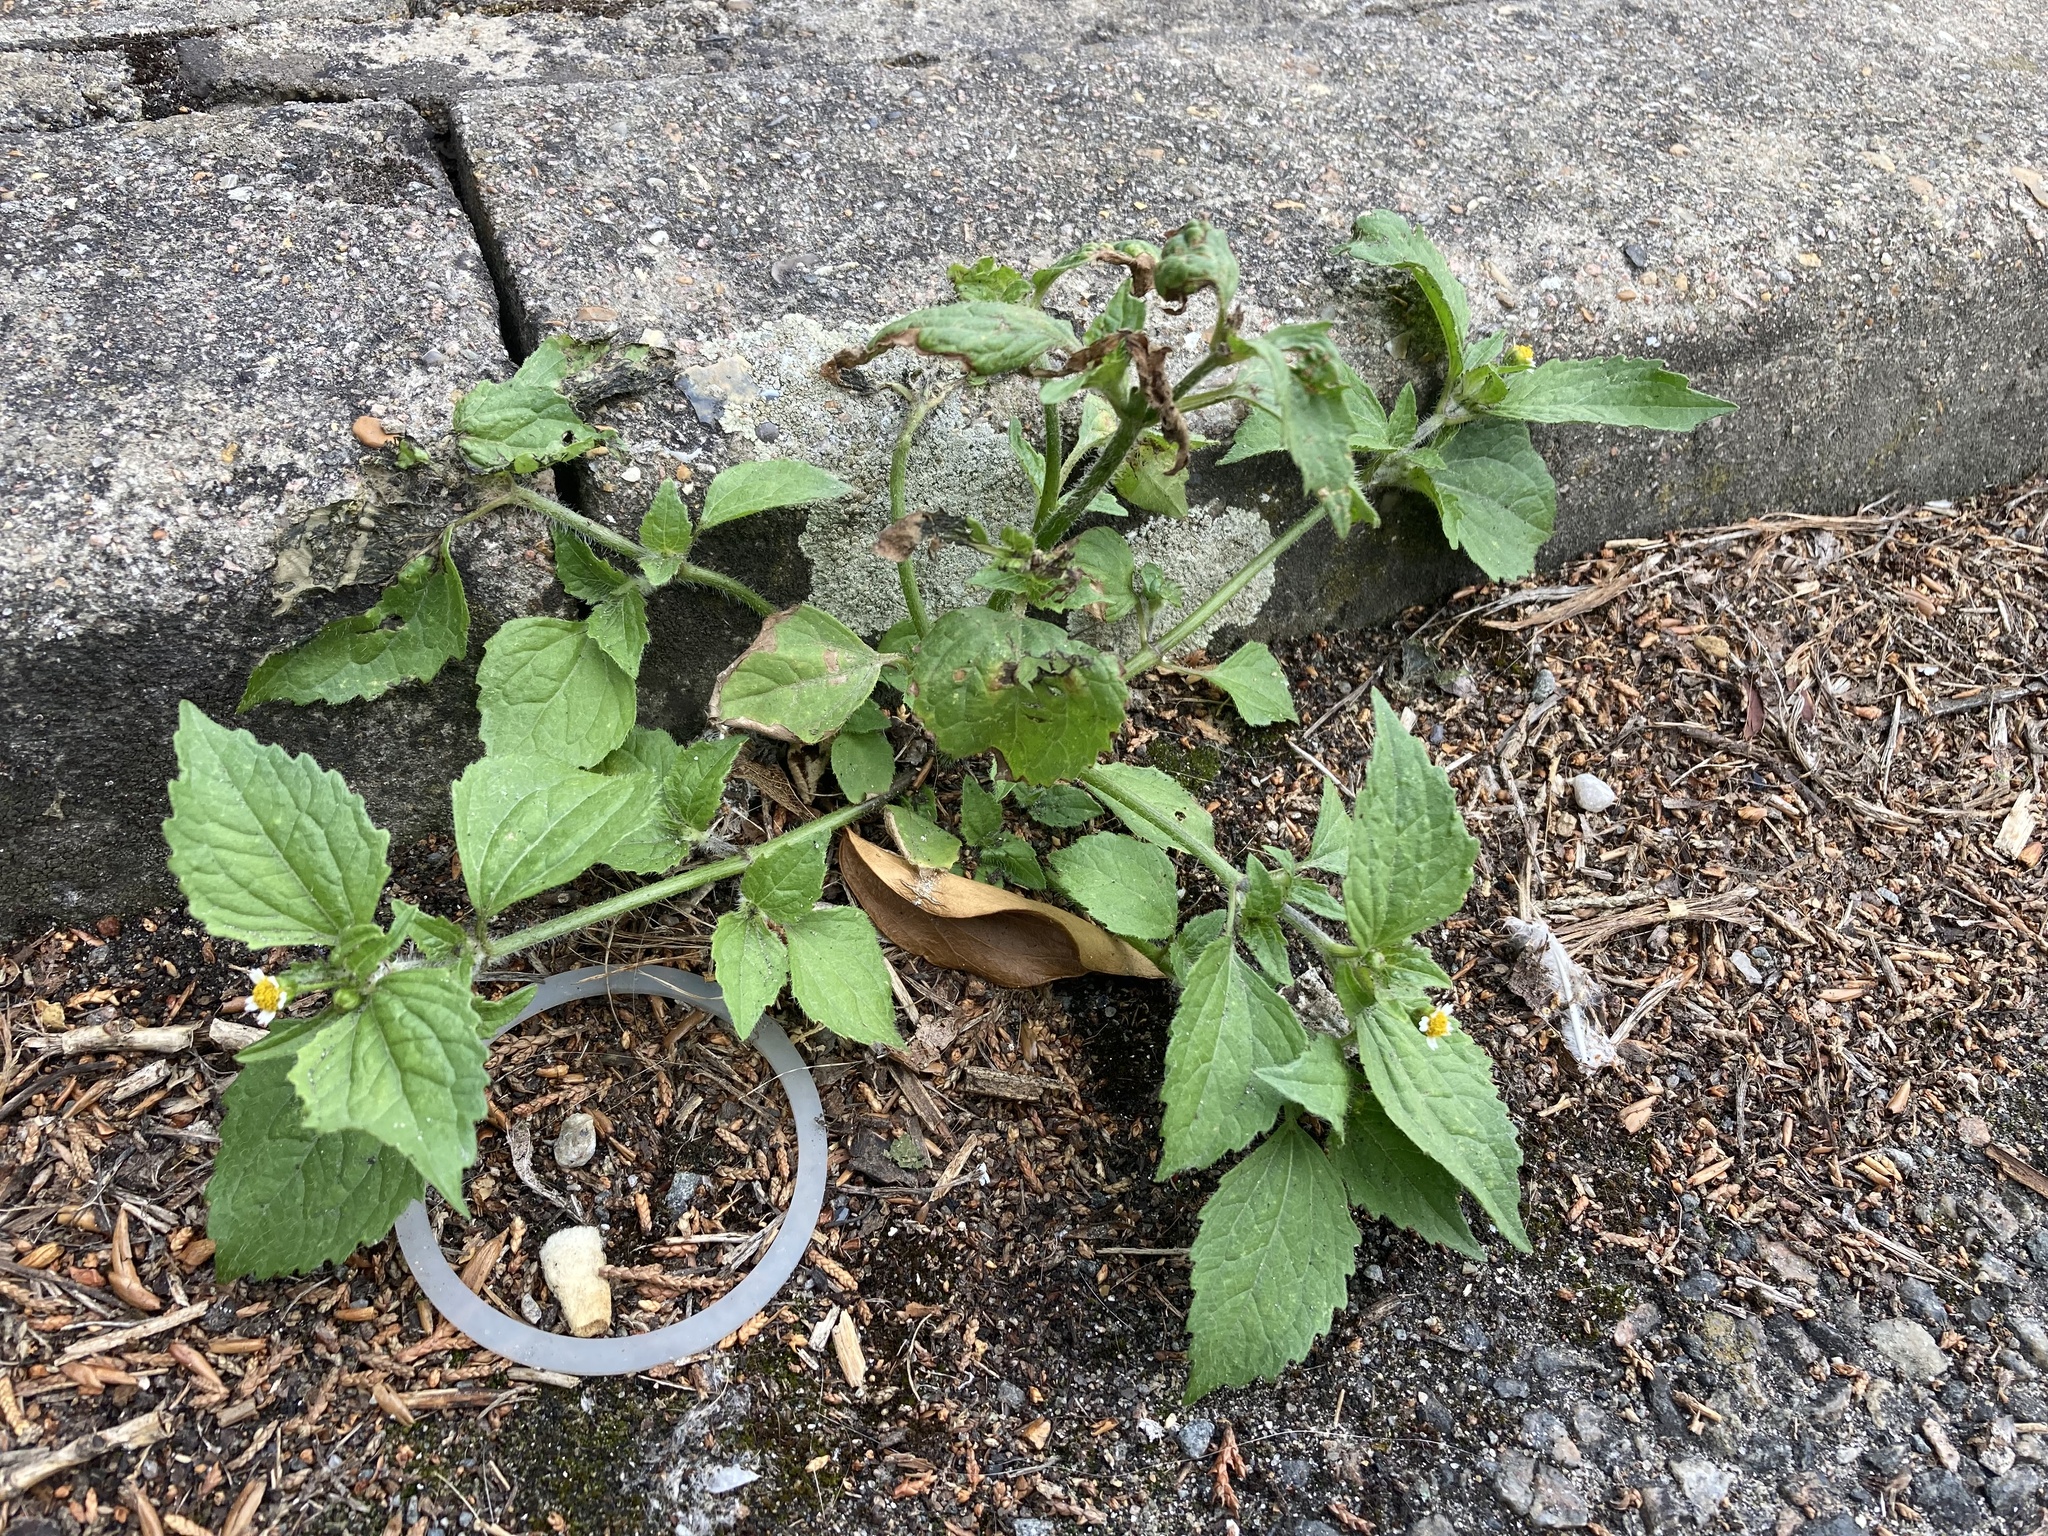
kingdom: Plantae
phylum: Tracheophyta
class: Magnoliopsida
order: Asterales
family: Asteraceae
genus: Galinsoga
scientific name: Galinsoga quadriradiata
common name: Shaggy soldier
